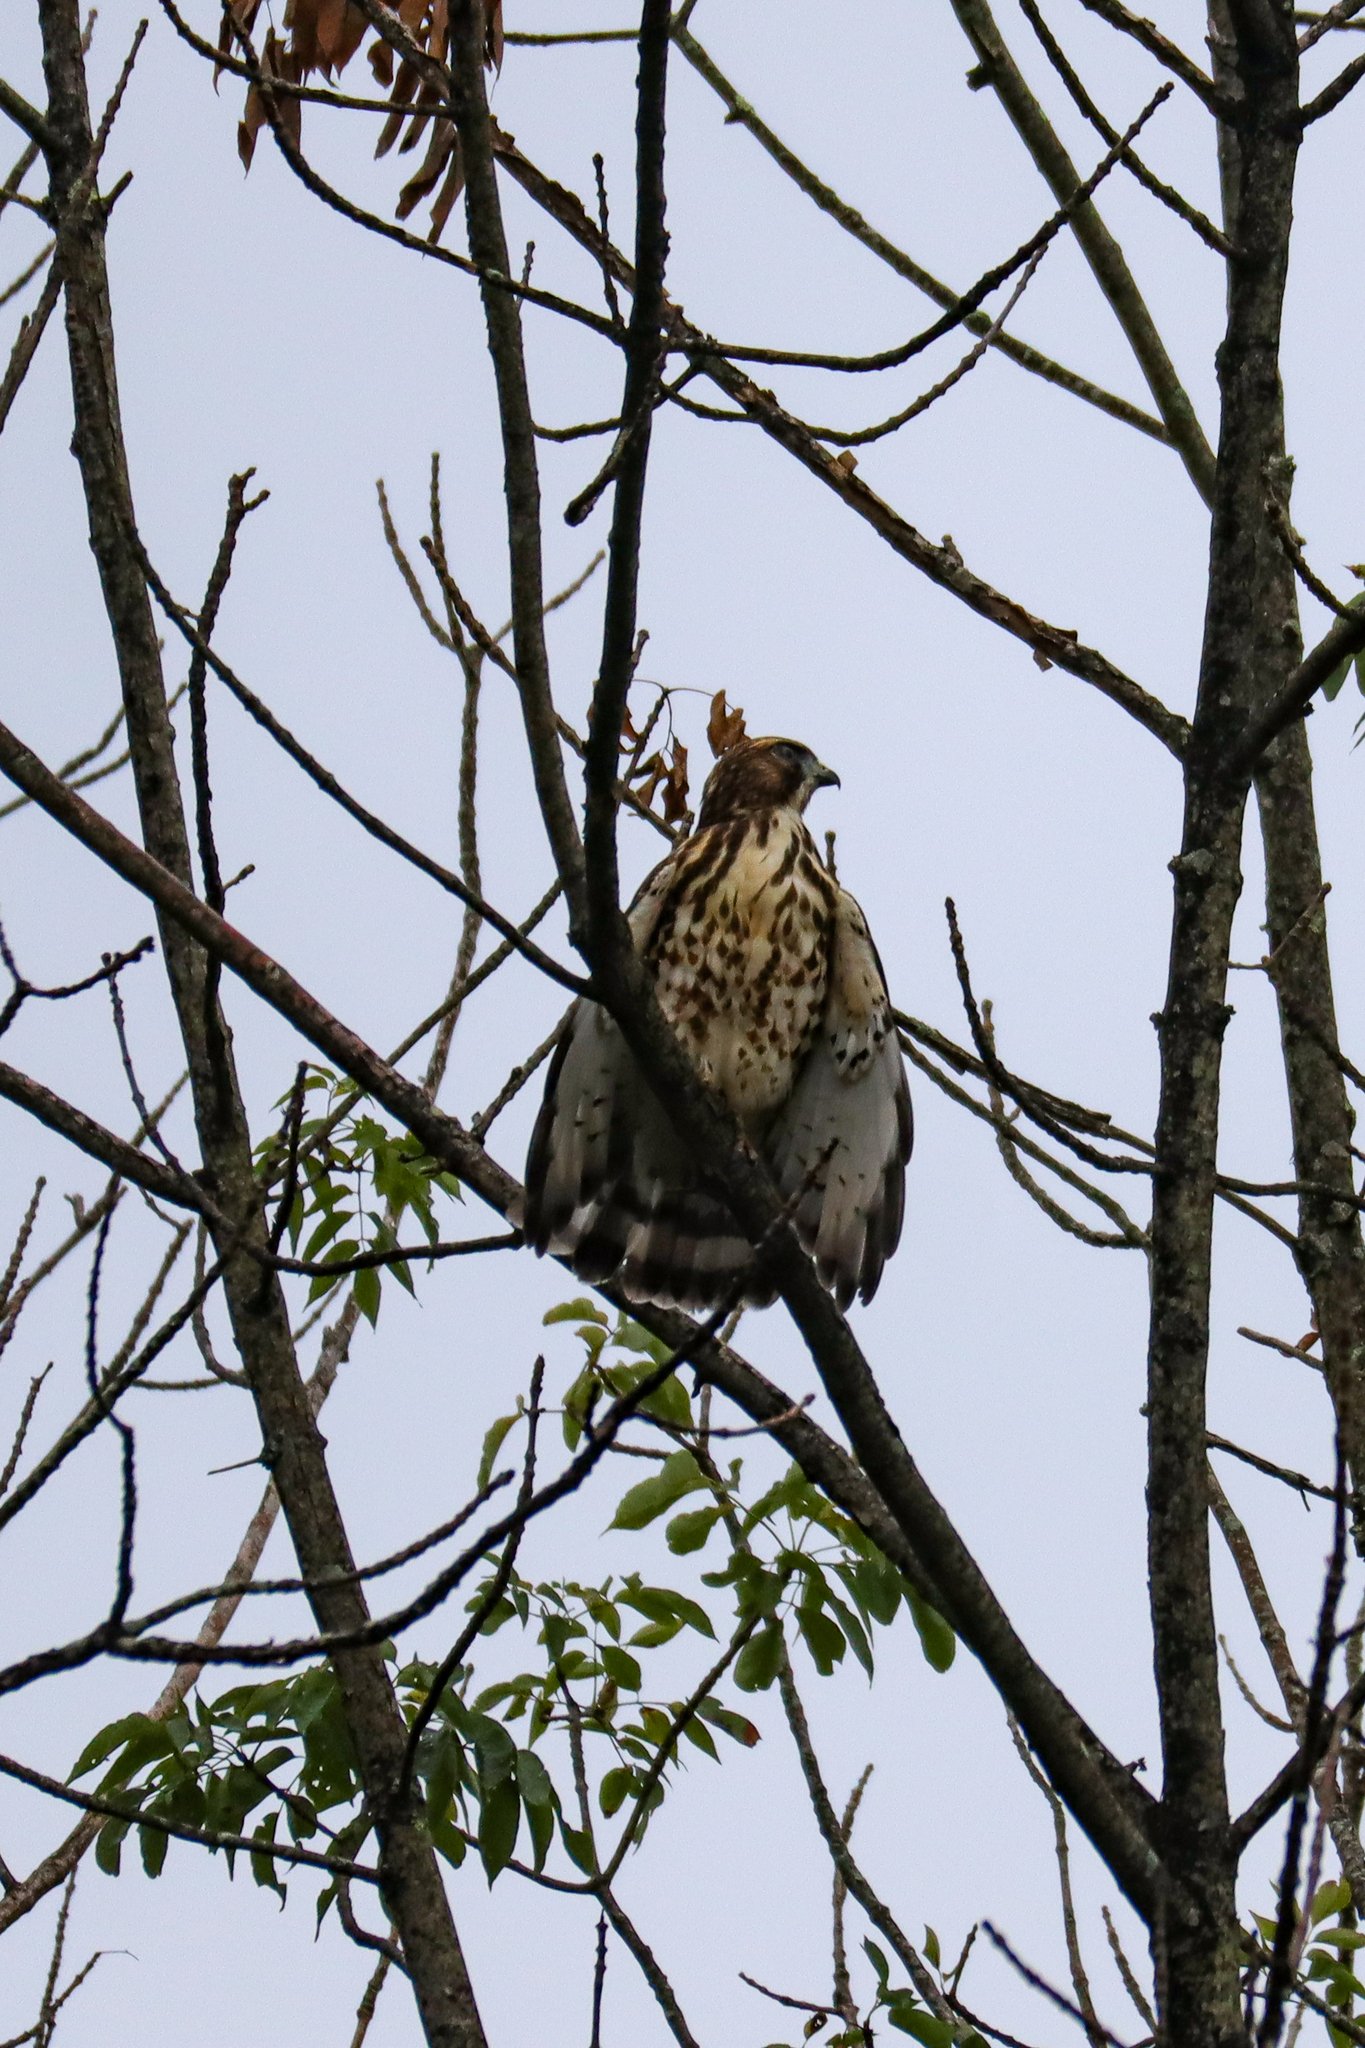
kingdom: Animalia
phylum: Chordata
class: Aves
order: Accipitriformes
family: Accipitridae
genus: Buteo
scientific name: Buteo platypterus
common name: Broad-winged hawk
